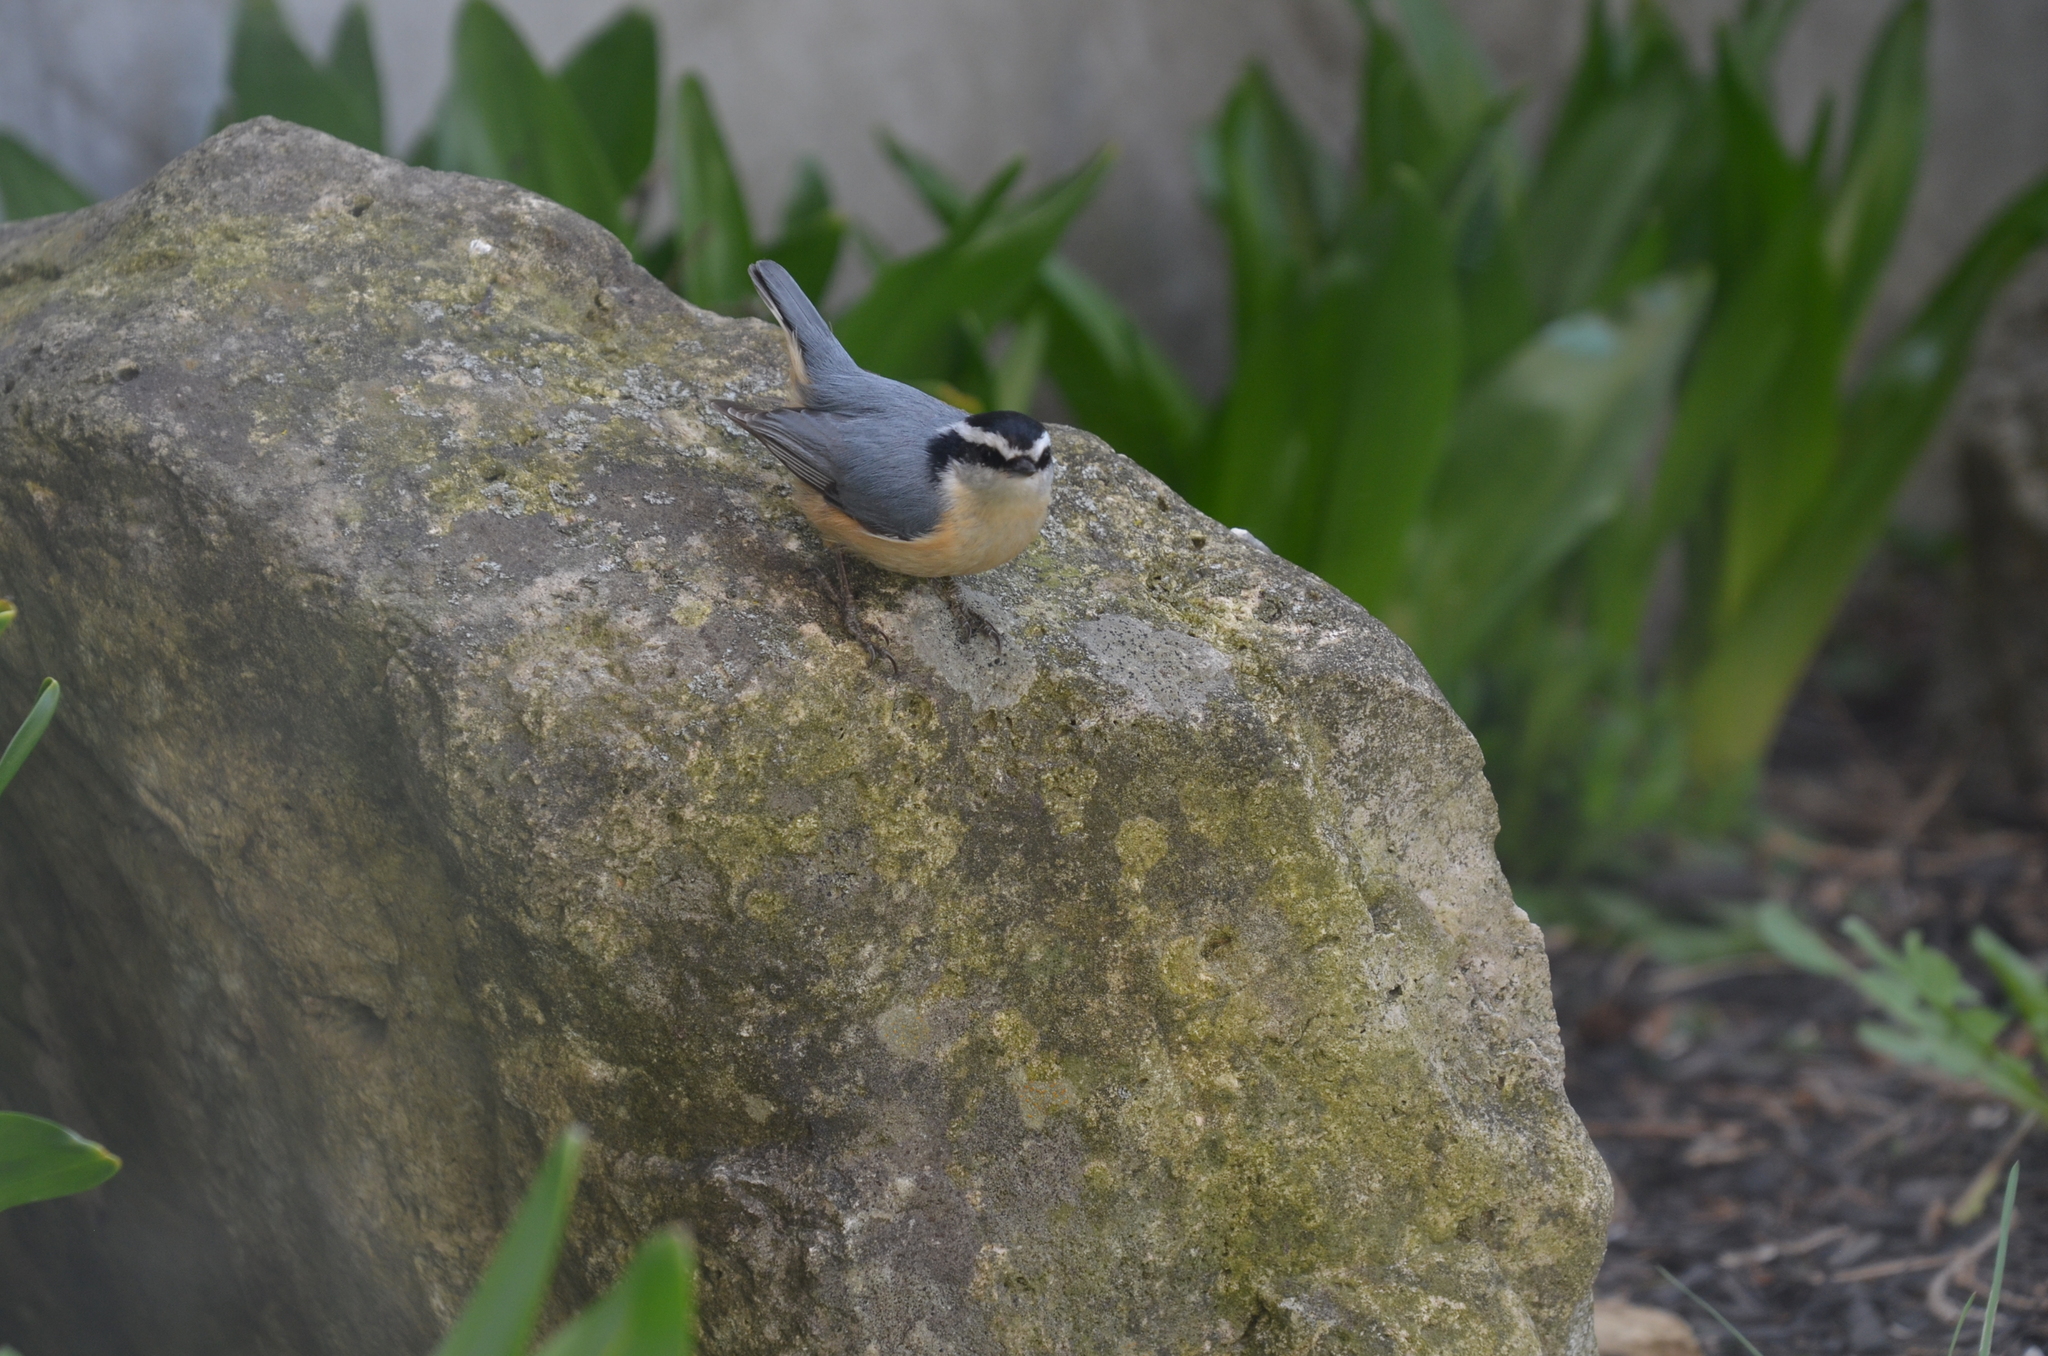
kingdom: Animalia
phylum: Chordata
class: Aves
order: Passeriformes
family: Sittidae
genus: Sitta
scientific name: Sitta canadensis
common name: Red-breasted nuthatch
